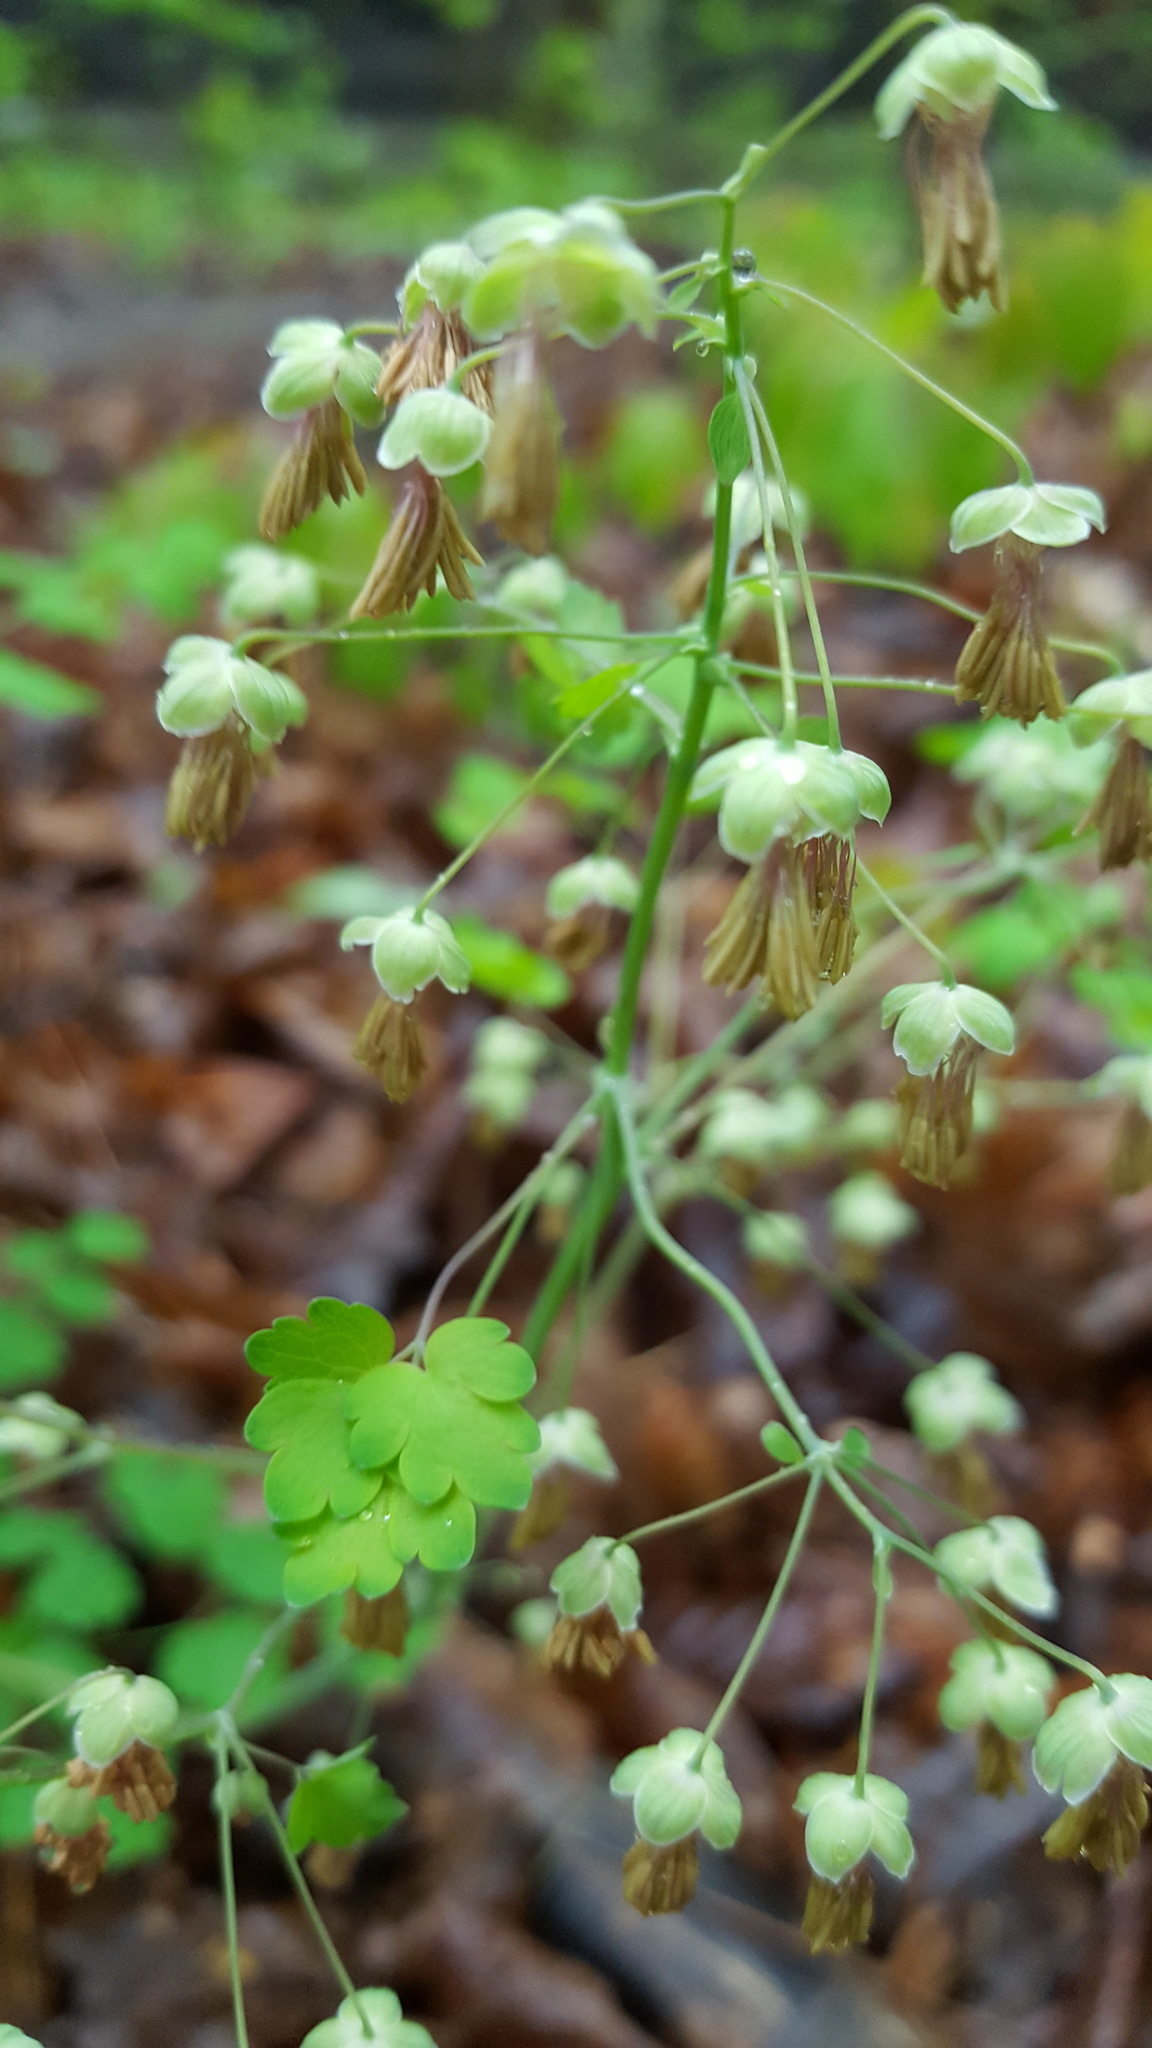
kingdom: Plantae
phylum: Tracheophyta
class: Magnoliopsida
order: Ranunculales
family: Ranunculaceae
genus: Thalictrum
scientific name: Thalictrum dioicum
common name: Early meadow-rue
